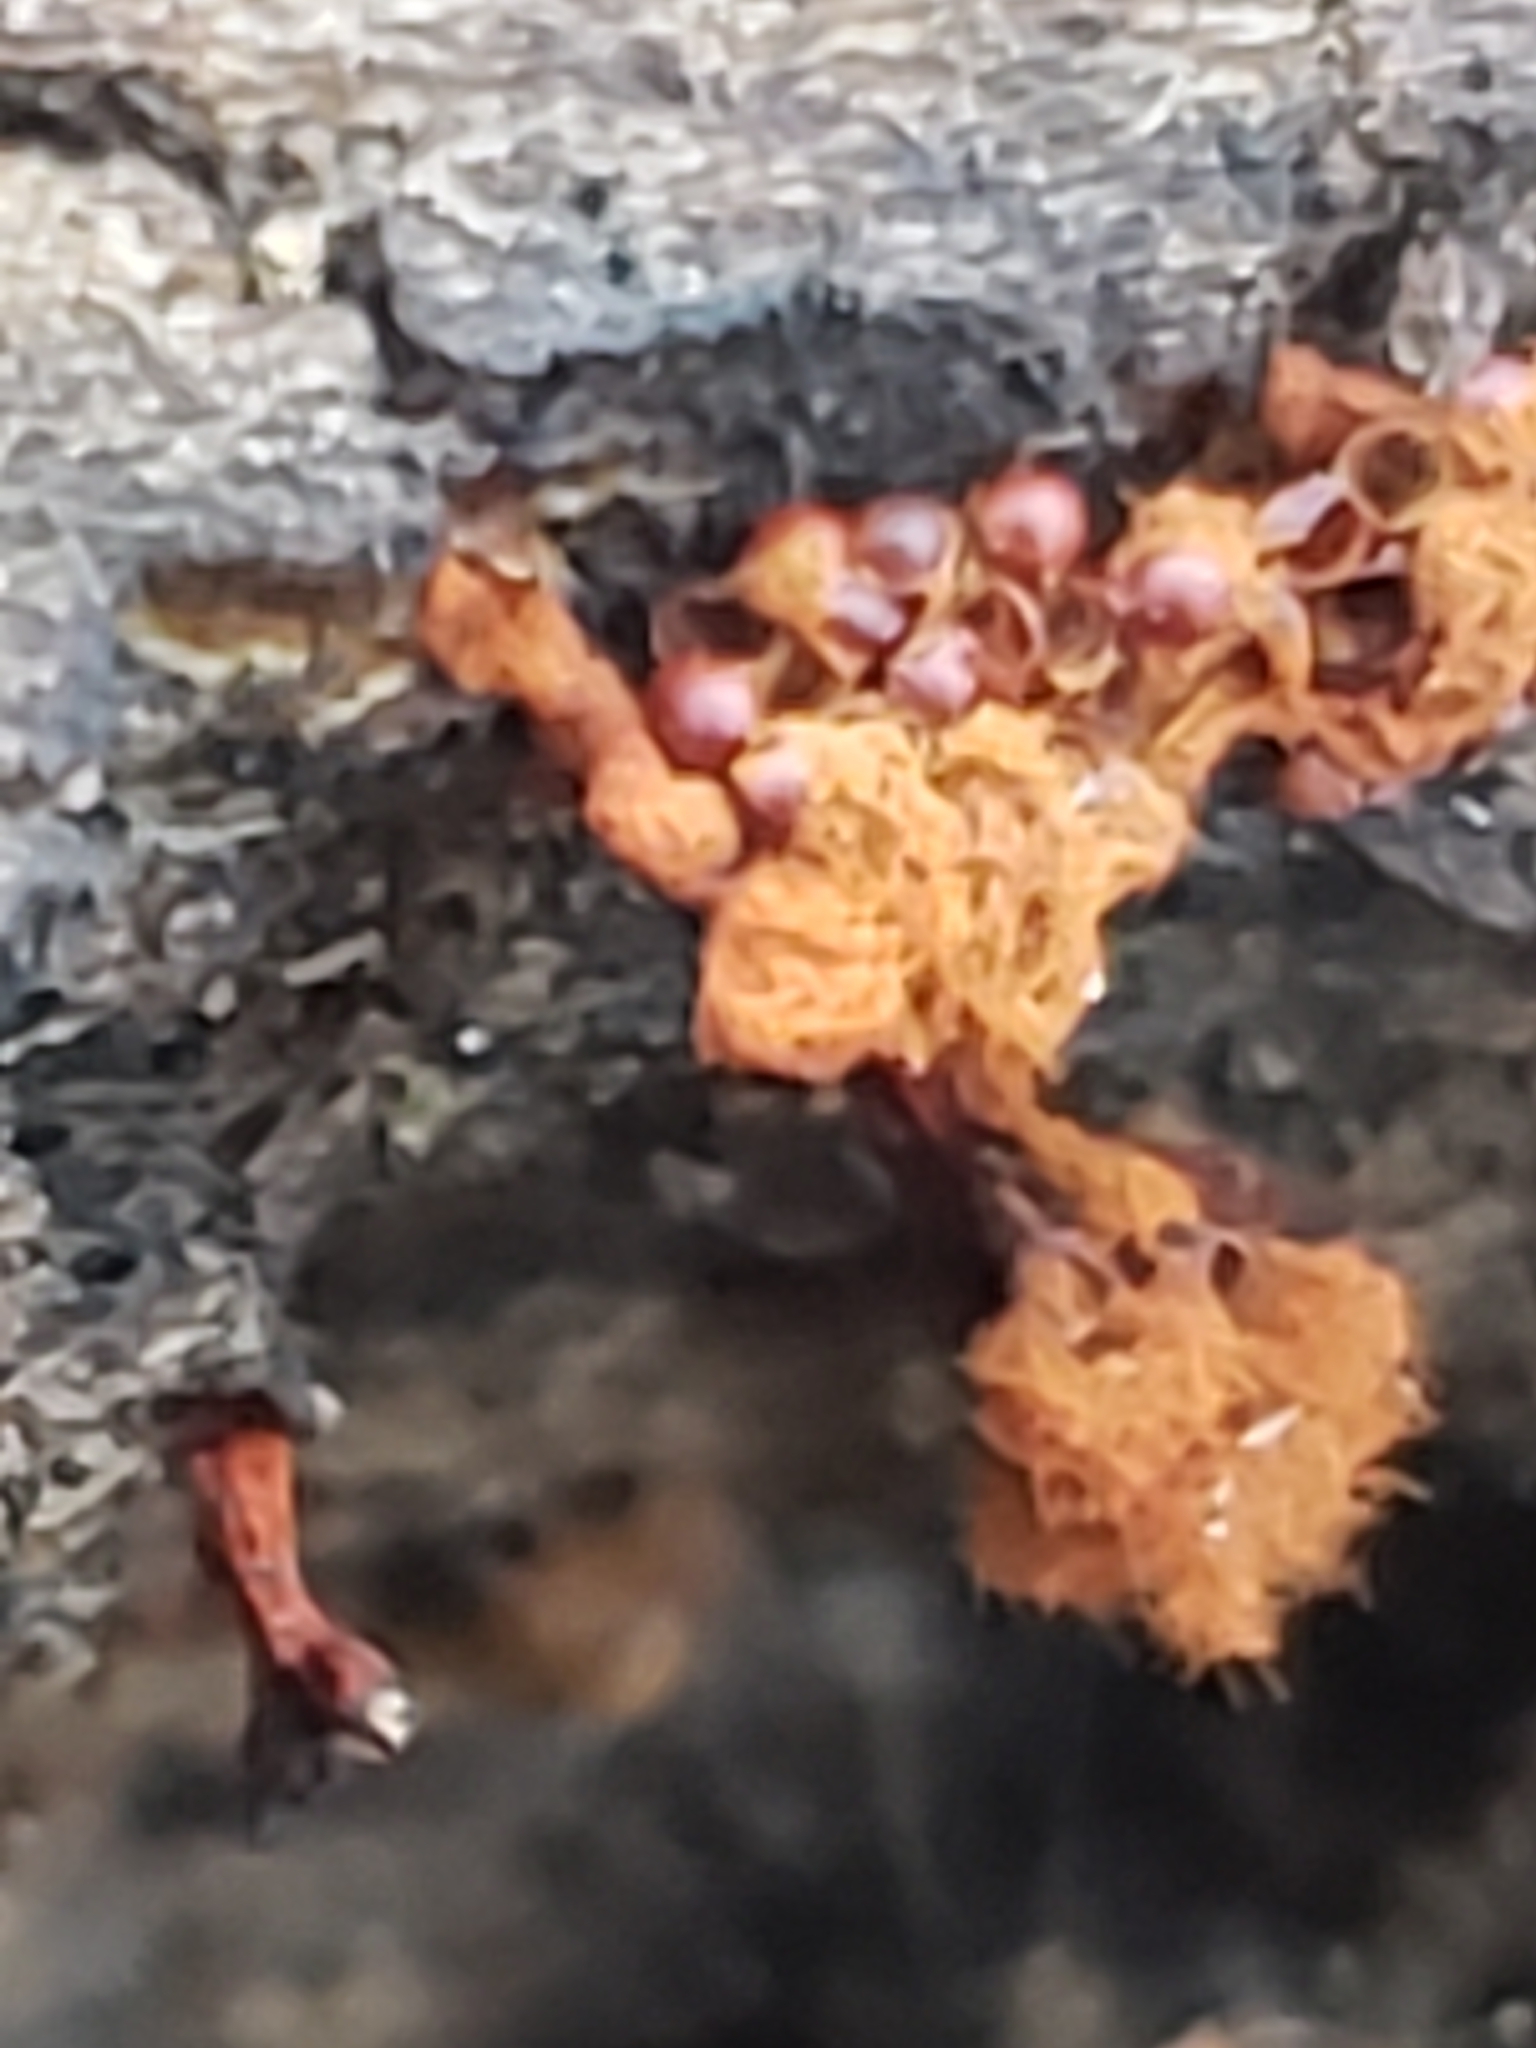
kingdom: Protozoa
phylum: Mycetozoa
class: Myxomycetes
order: Trichiales
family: Trichiaceae
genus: Metatrichia
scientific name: Metatrichia vesparia
